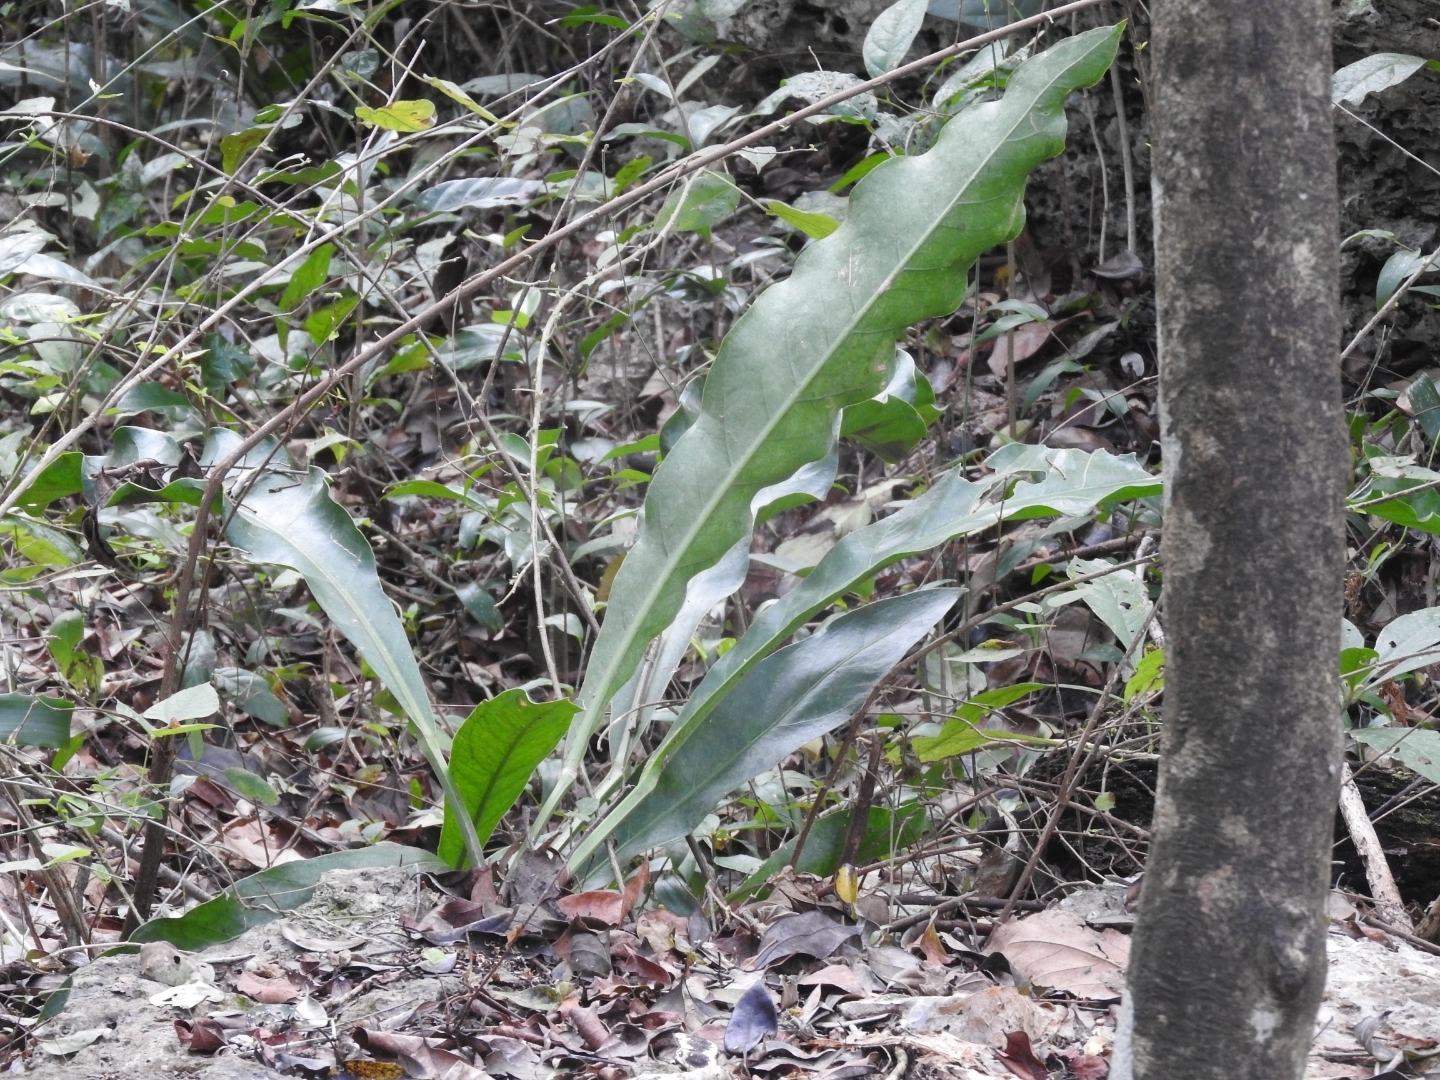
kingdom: Plantae
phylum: Tracheophyta
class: Liliopsida
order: Alismatales
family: Araceae
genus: Anthurium
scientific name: Anthurium schlechtendalii
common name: Laceleaf
